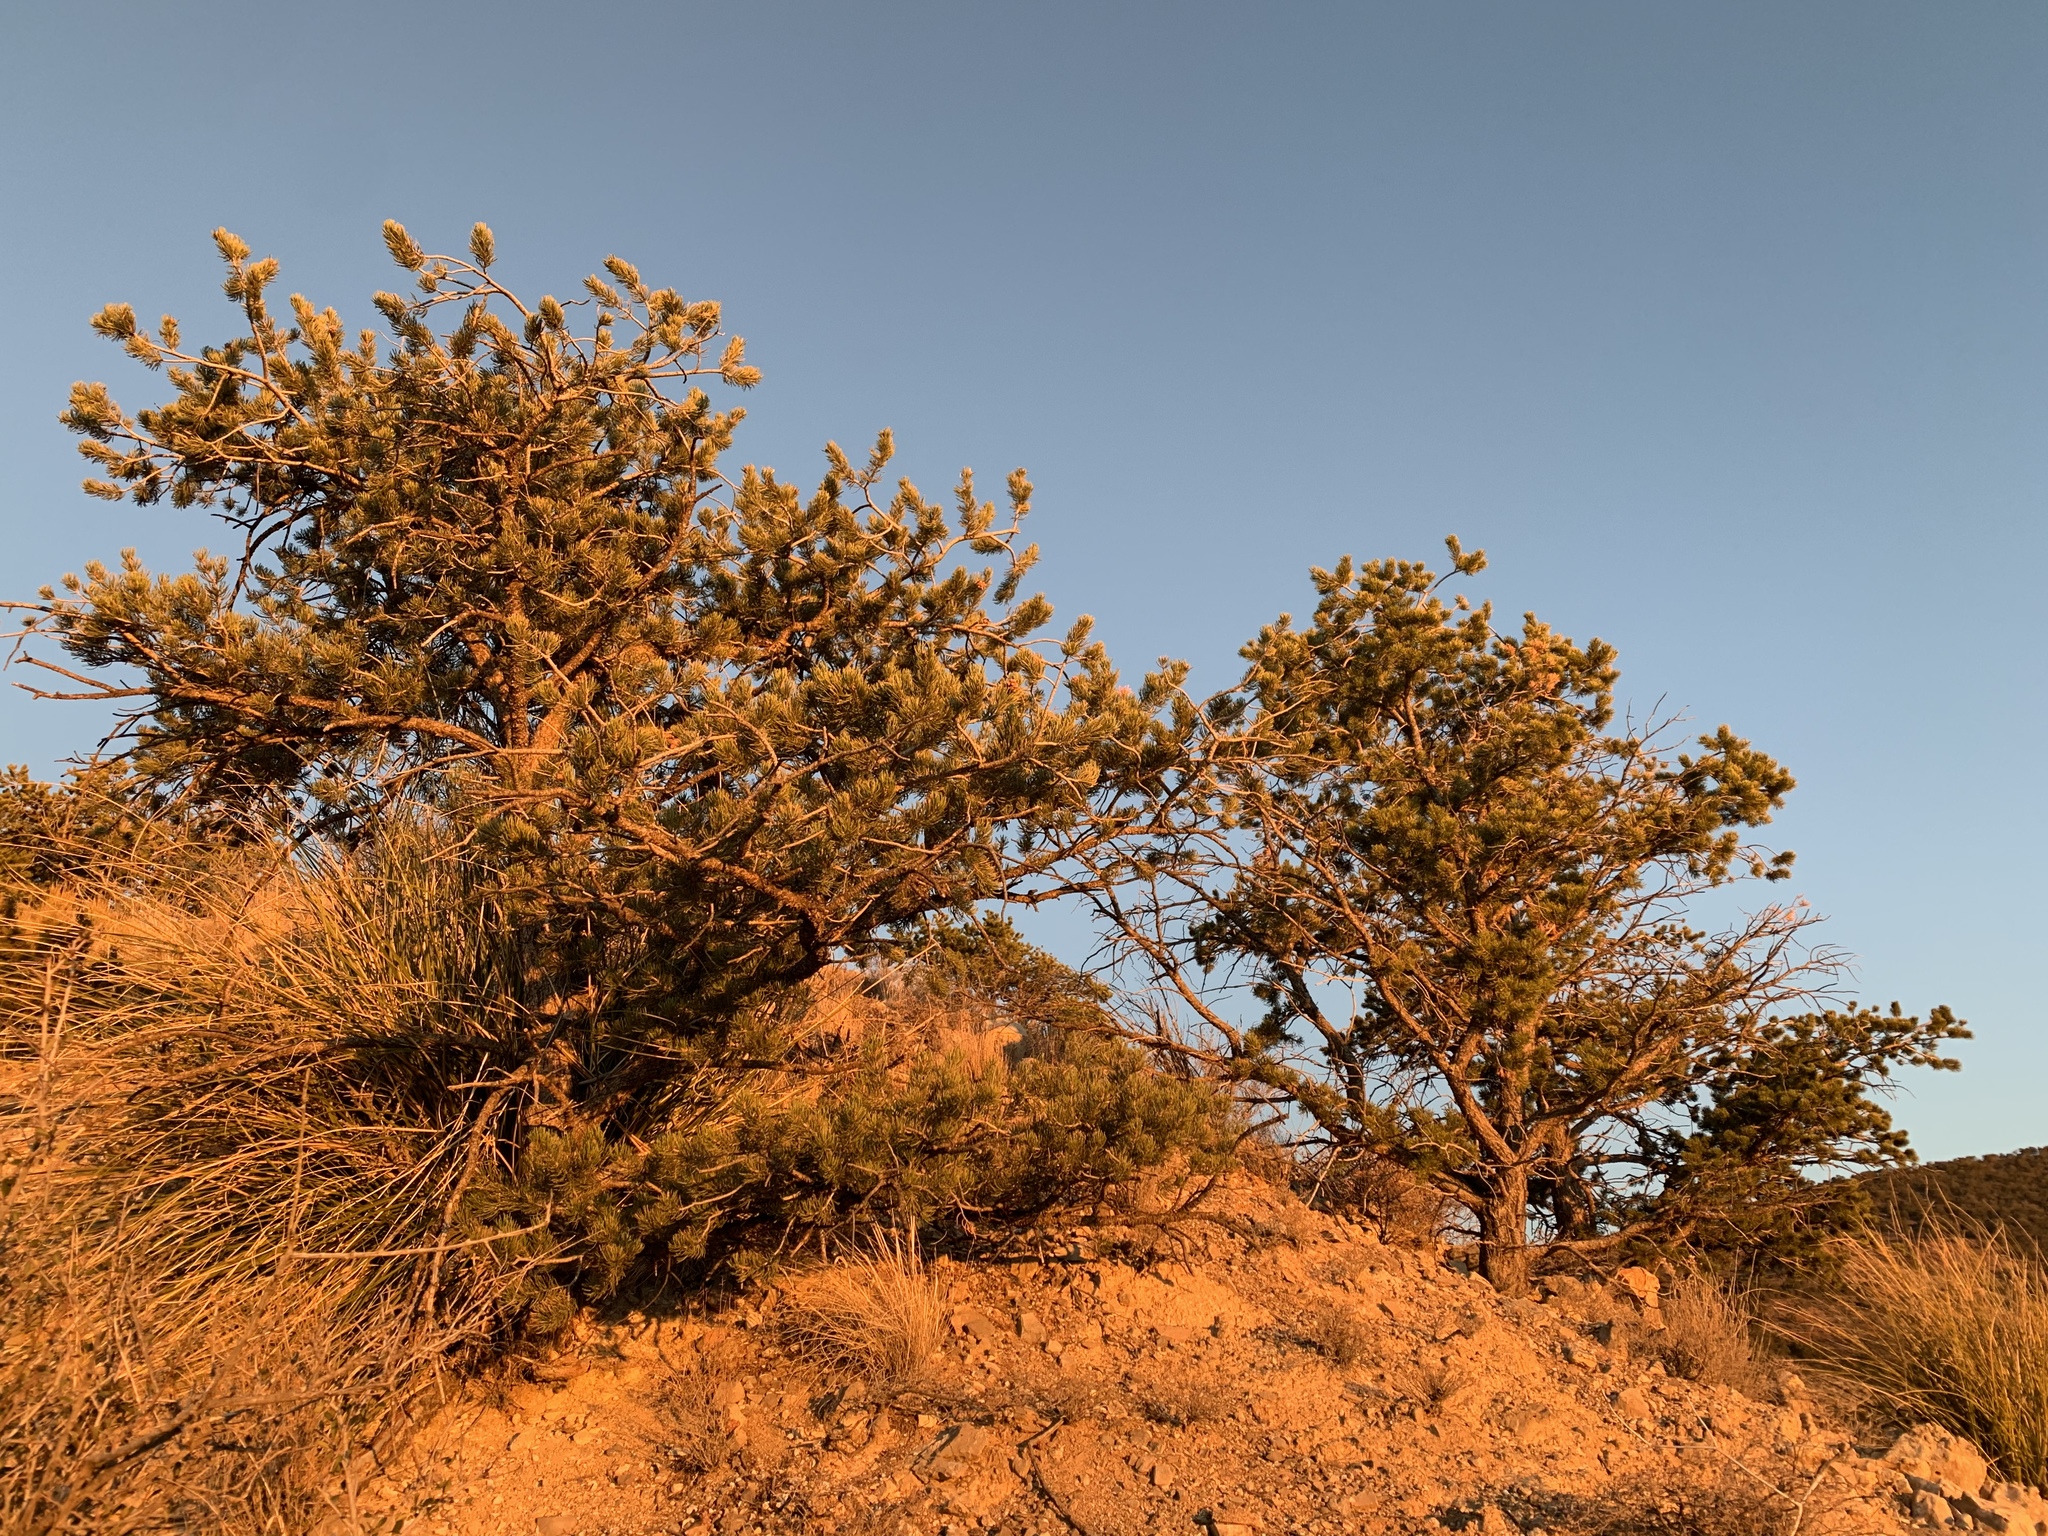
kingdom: Plantae
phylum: Tracheophyta
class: Pinopsida
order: Pinales
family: Pinaceae
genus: Pinus
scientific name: Pinus edulis
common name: Colorado pinyon
